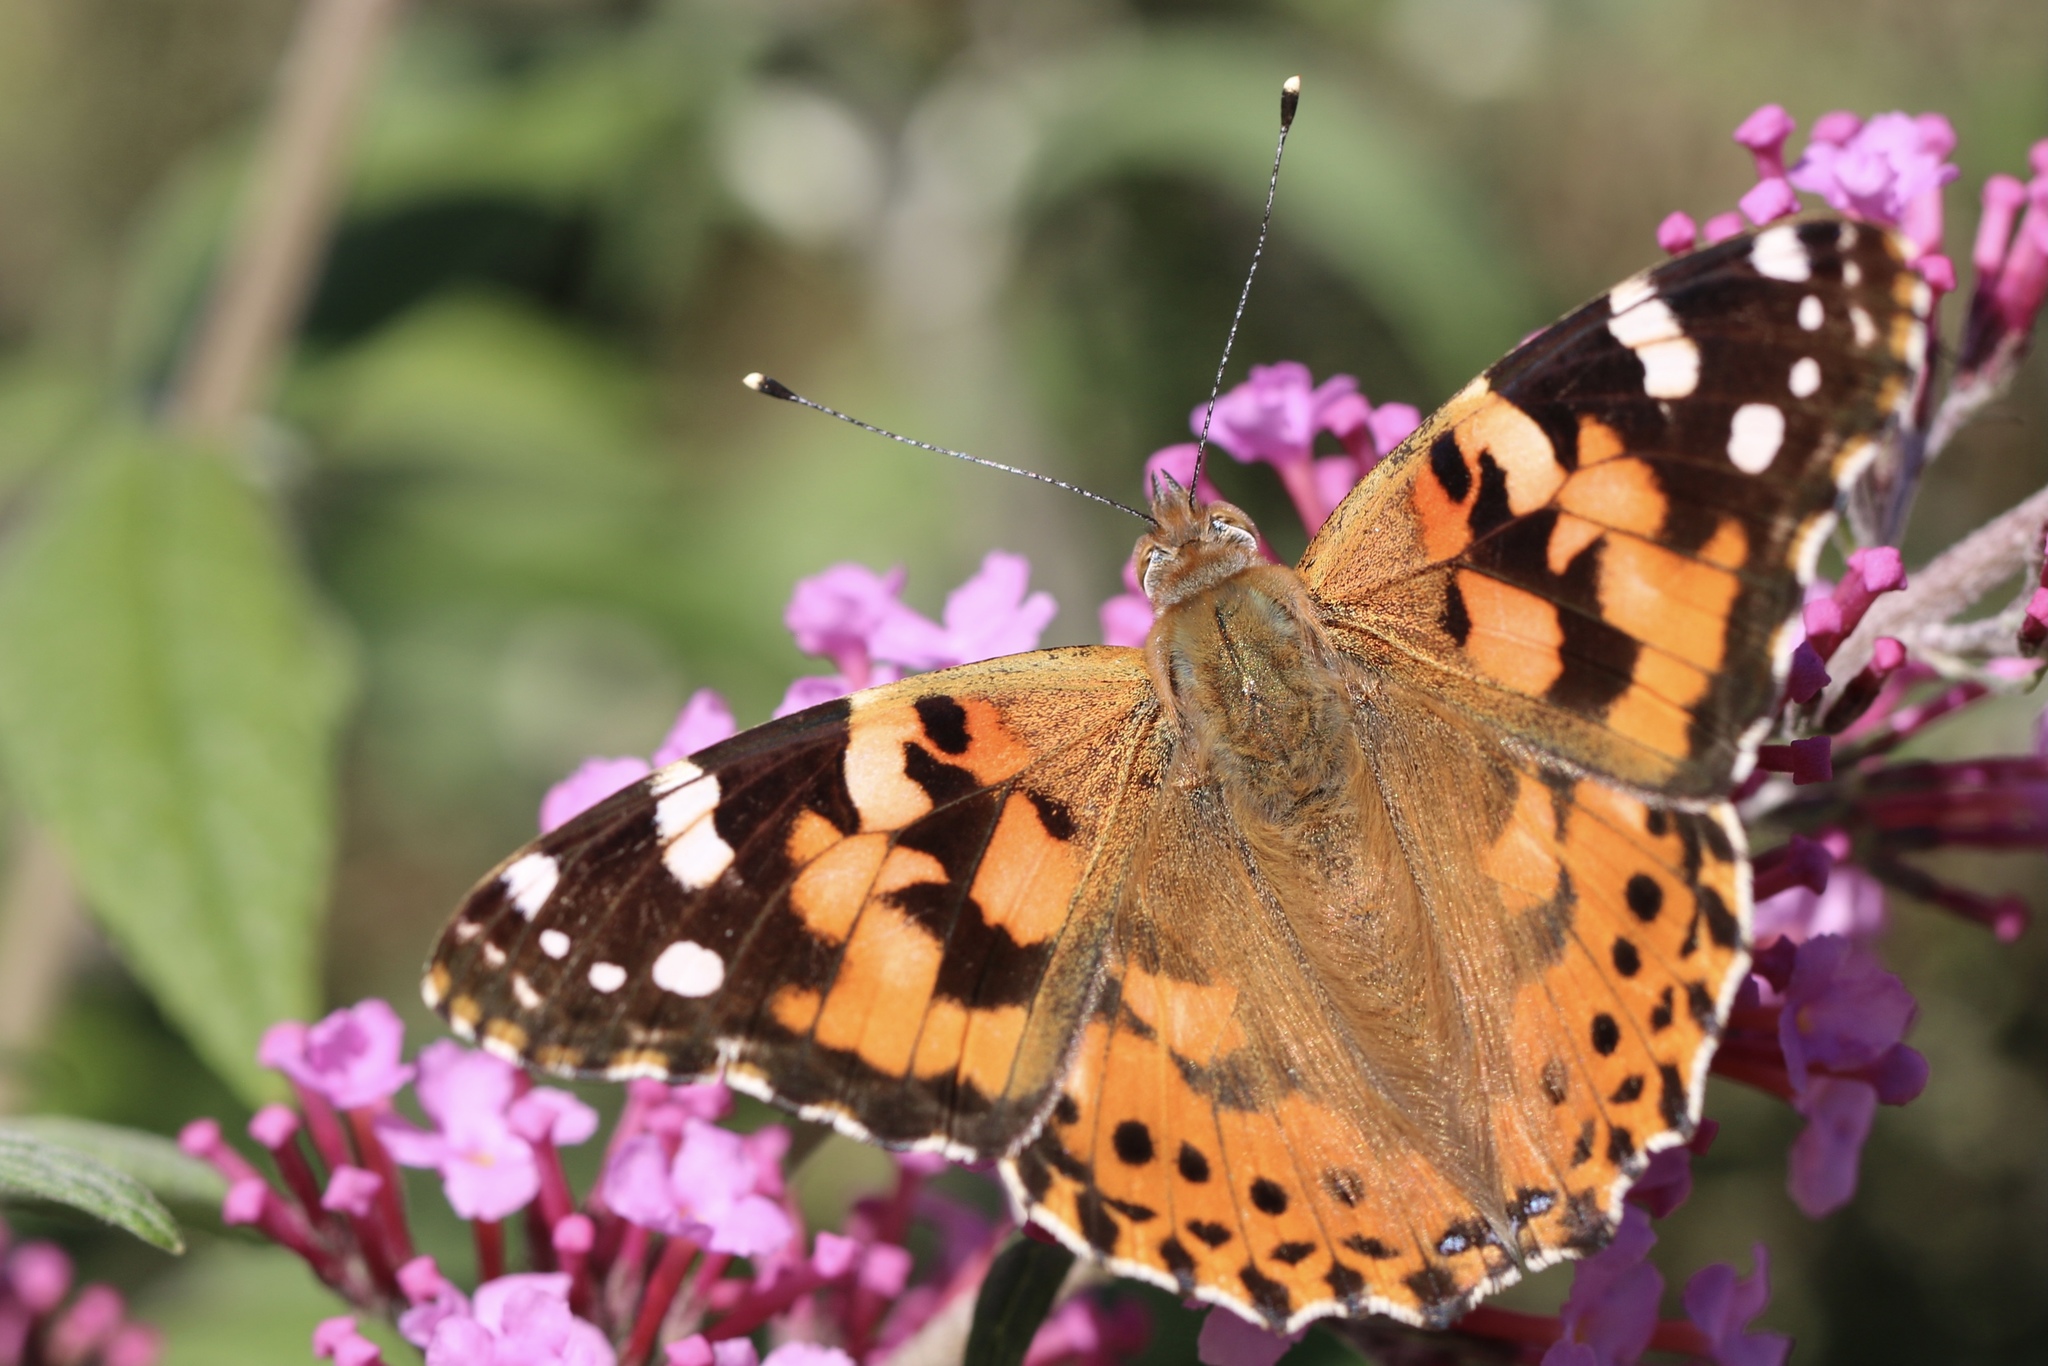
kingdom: Animalia
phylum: Arthropoda
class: Insecta
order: Lepidoptera
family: Nymphalidae
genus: Vanessa
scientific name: Vanessa cardui
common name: Painted lady
